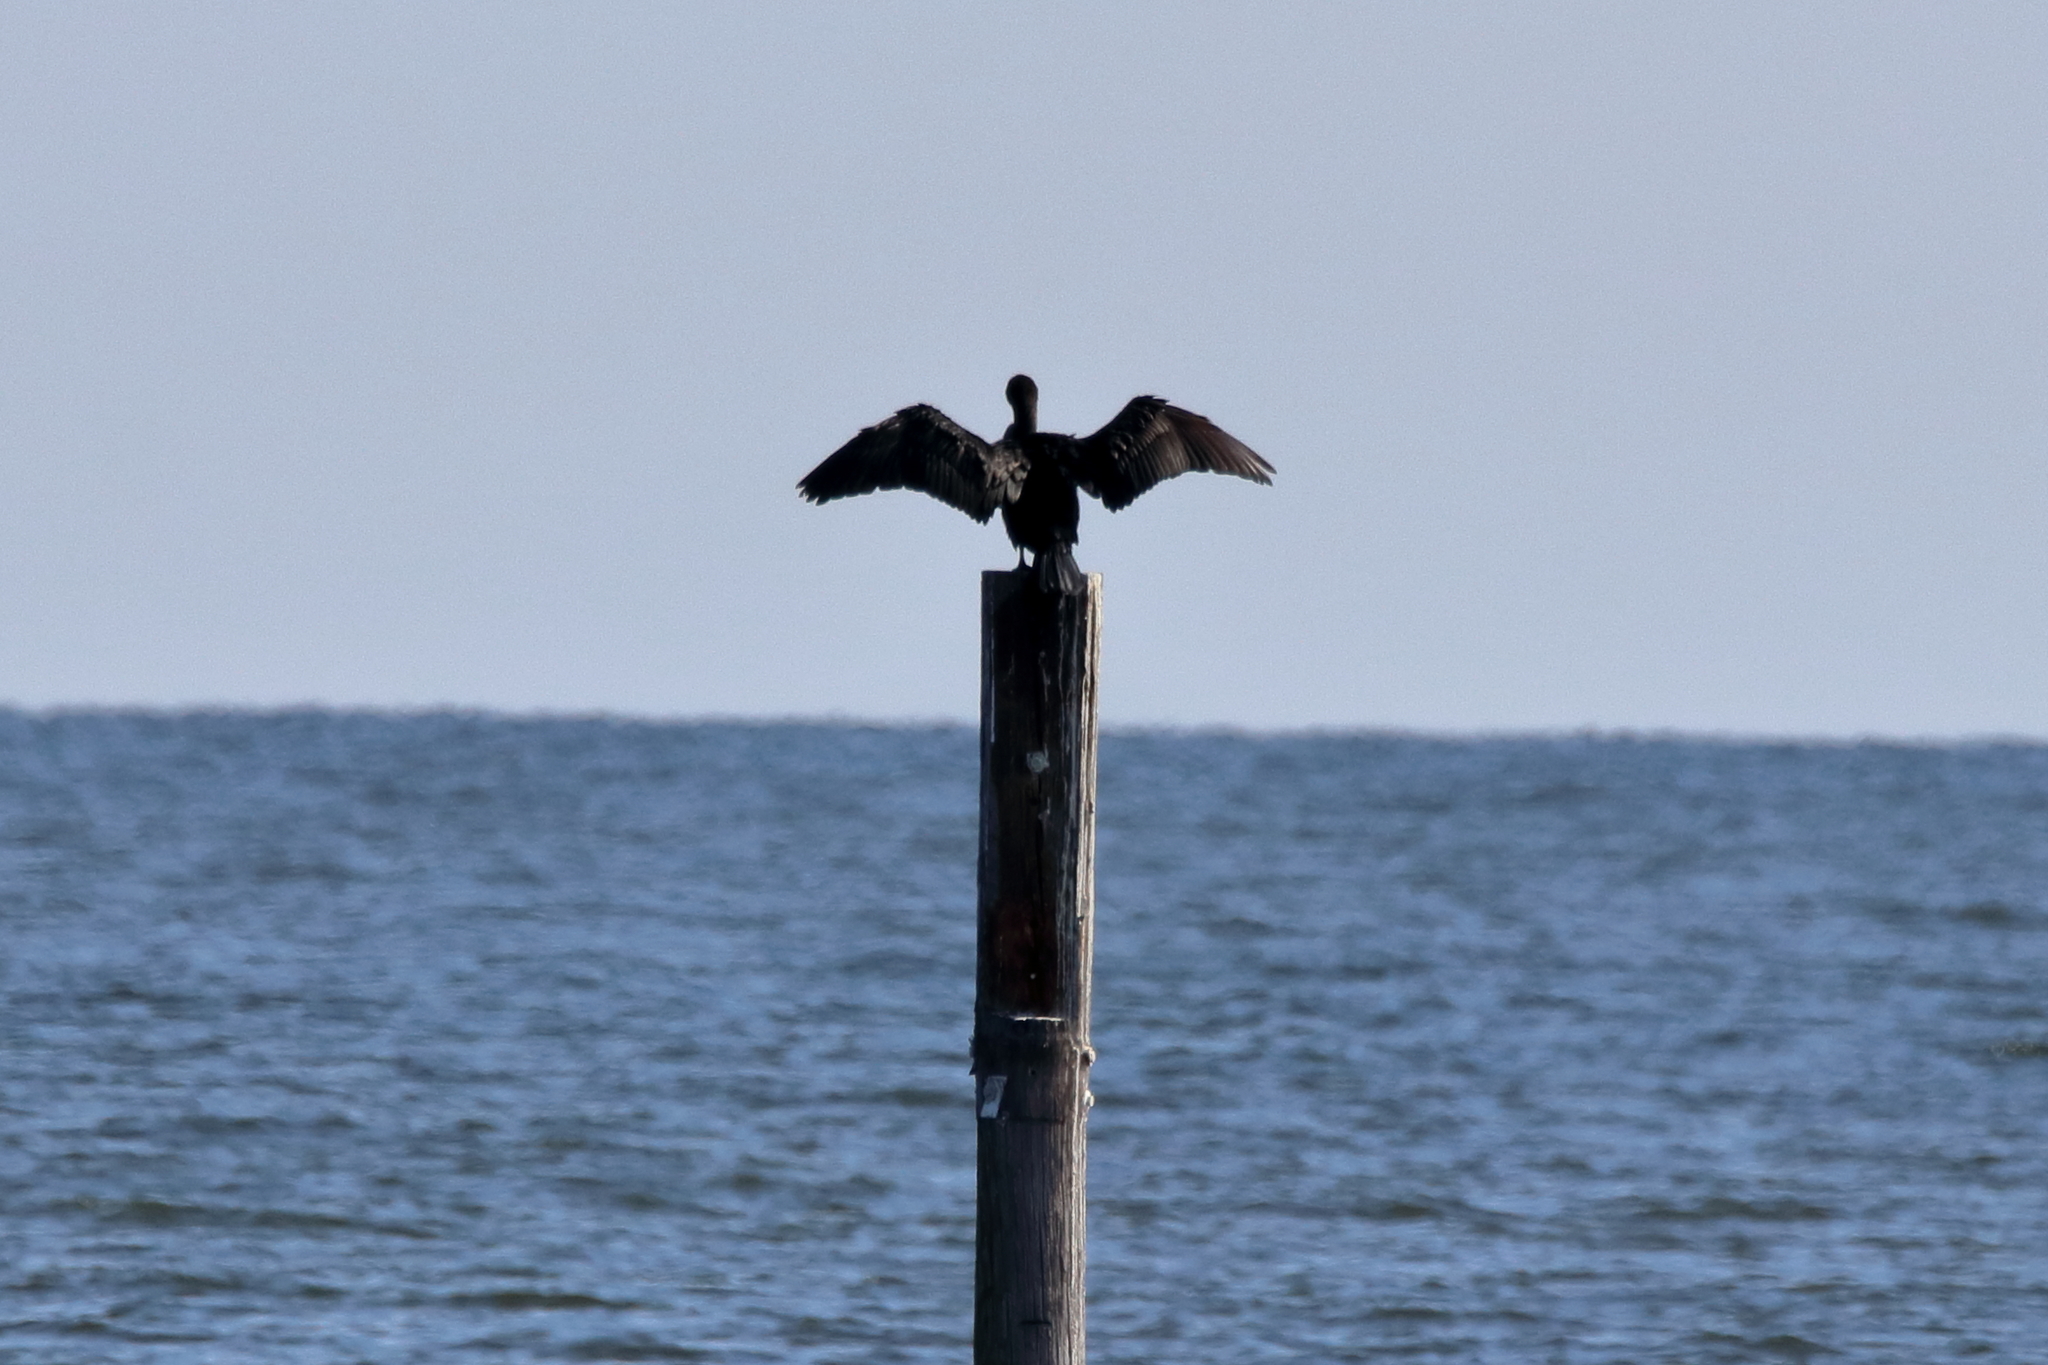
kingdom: Animalia
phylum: Chordata
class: Aves
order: Suliformes
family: Phalacrocoracidae
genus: Phalacrocorax
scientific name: Phalacrocorax auritus
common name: Double-crested cormorant
